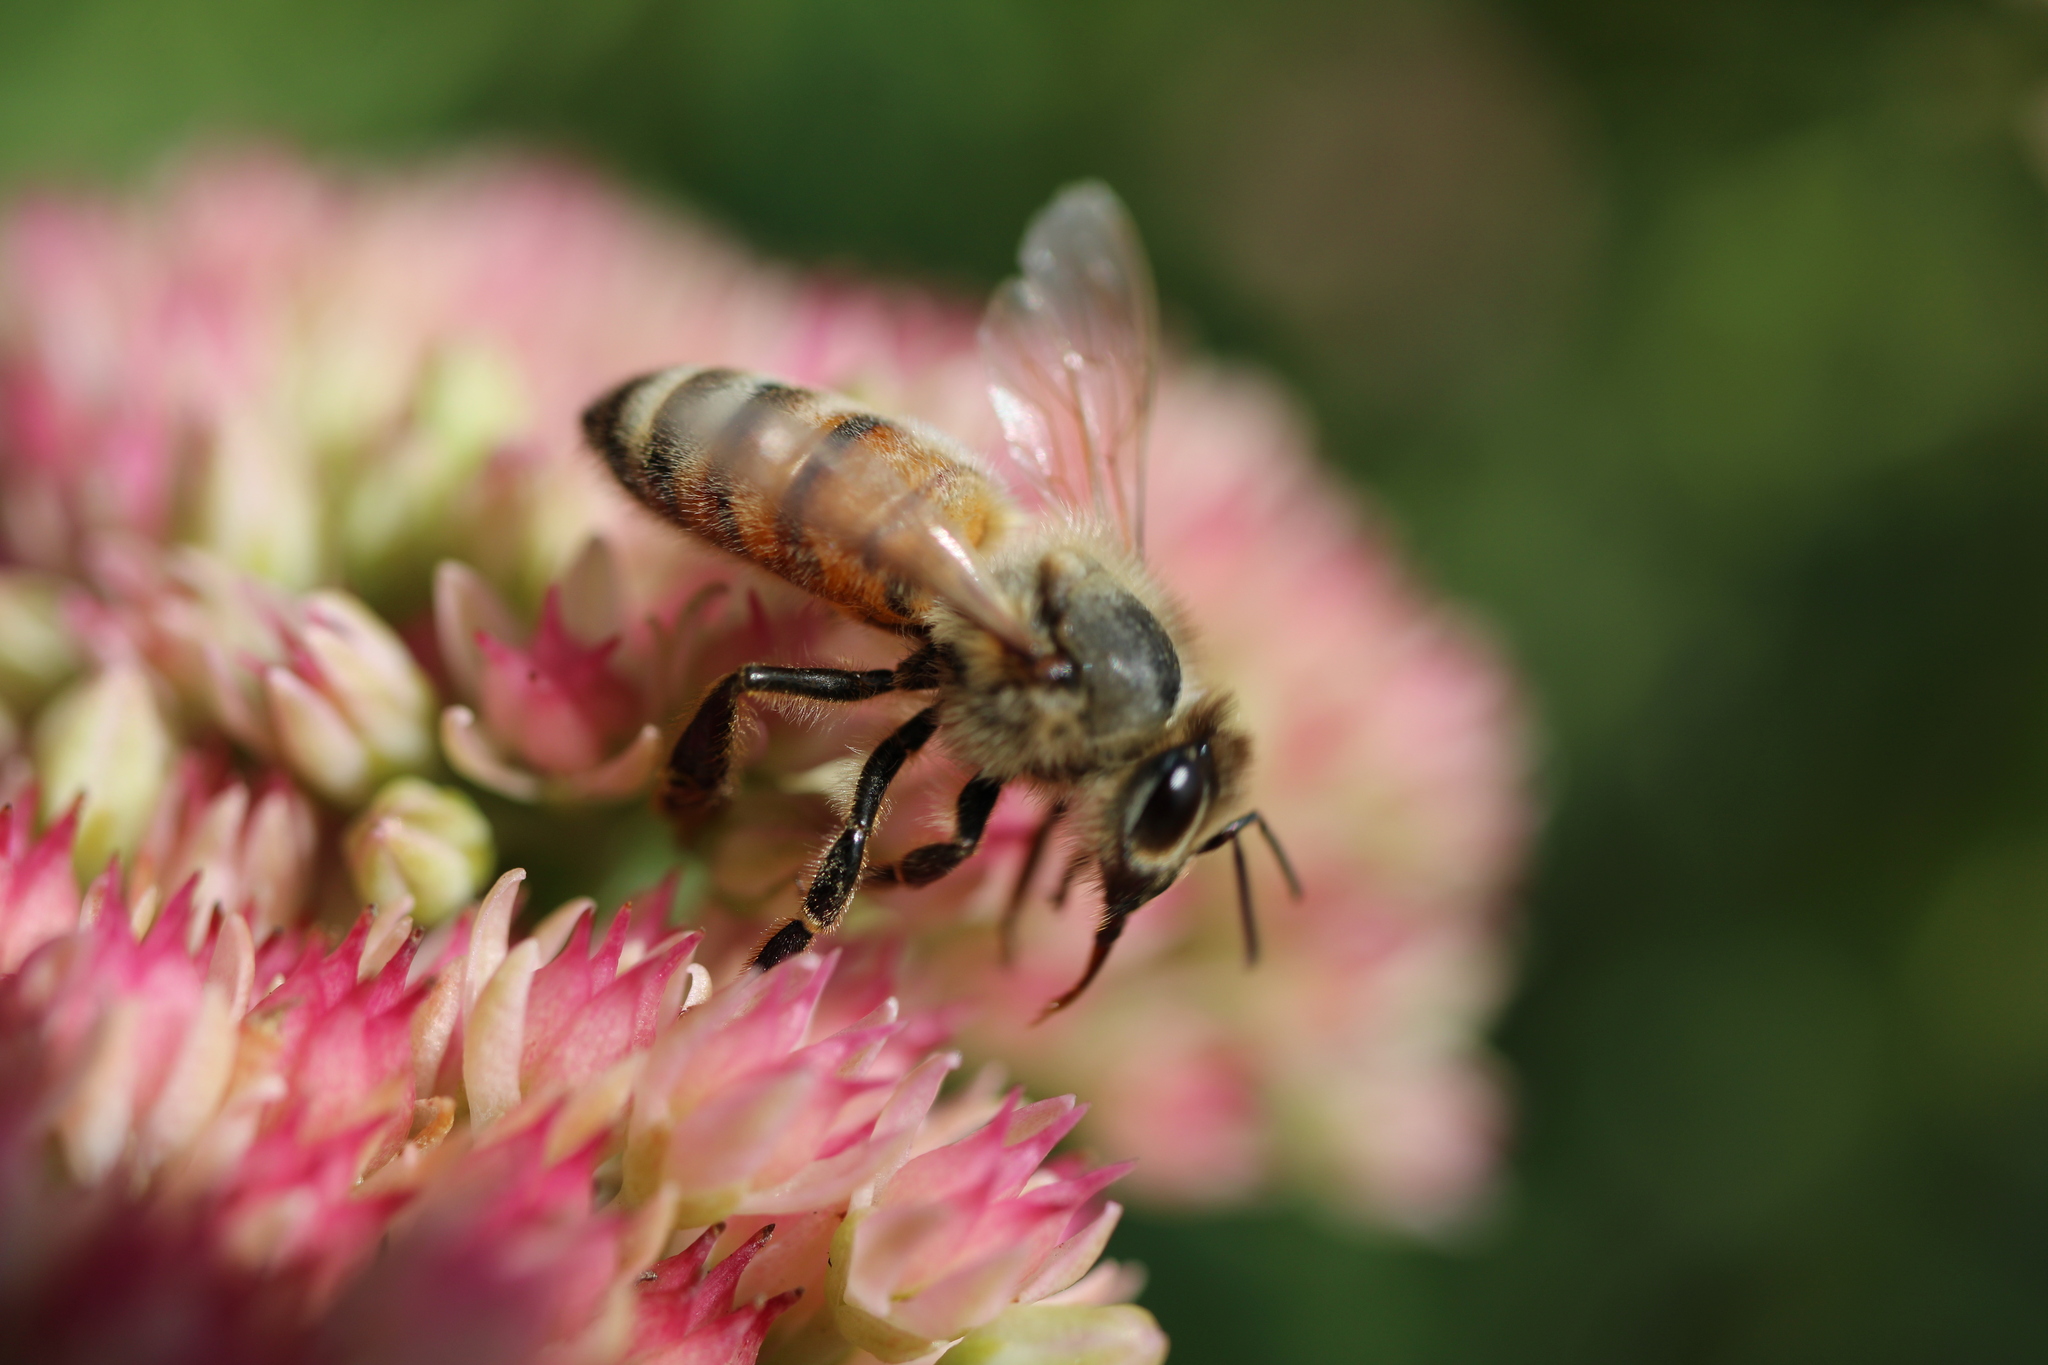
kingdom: Animalia
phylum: Arthropoda
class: Insecta
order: Hymenoptera
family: Apidae
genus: Apis
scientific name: Apis mellifera
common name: Honey bee
